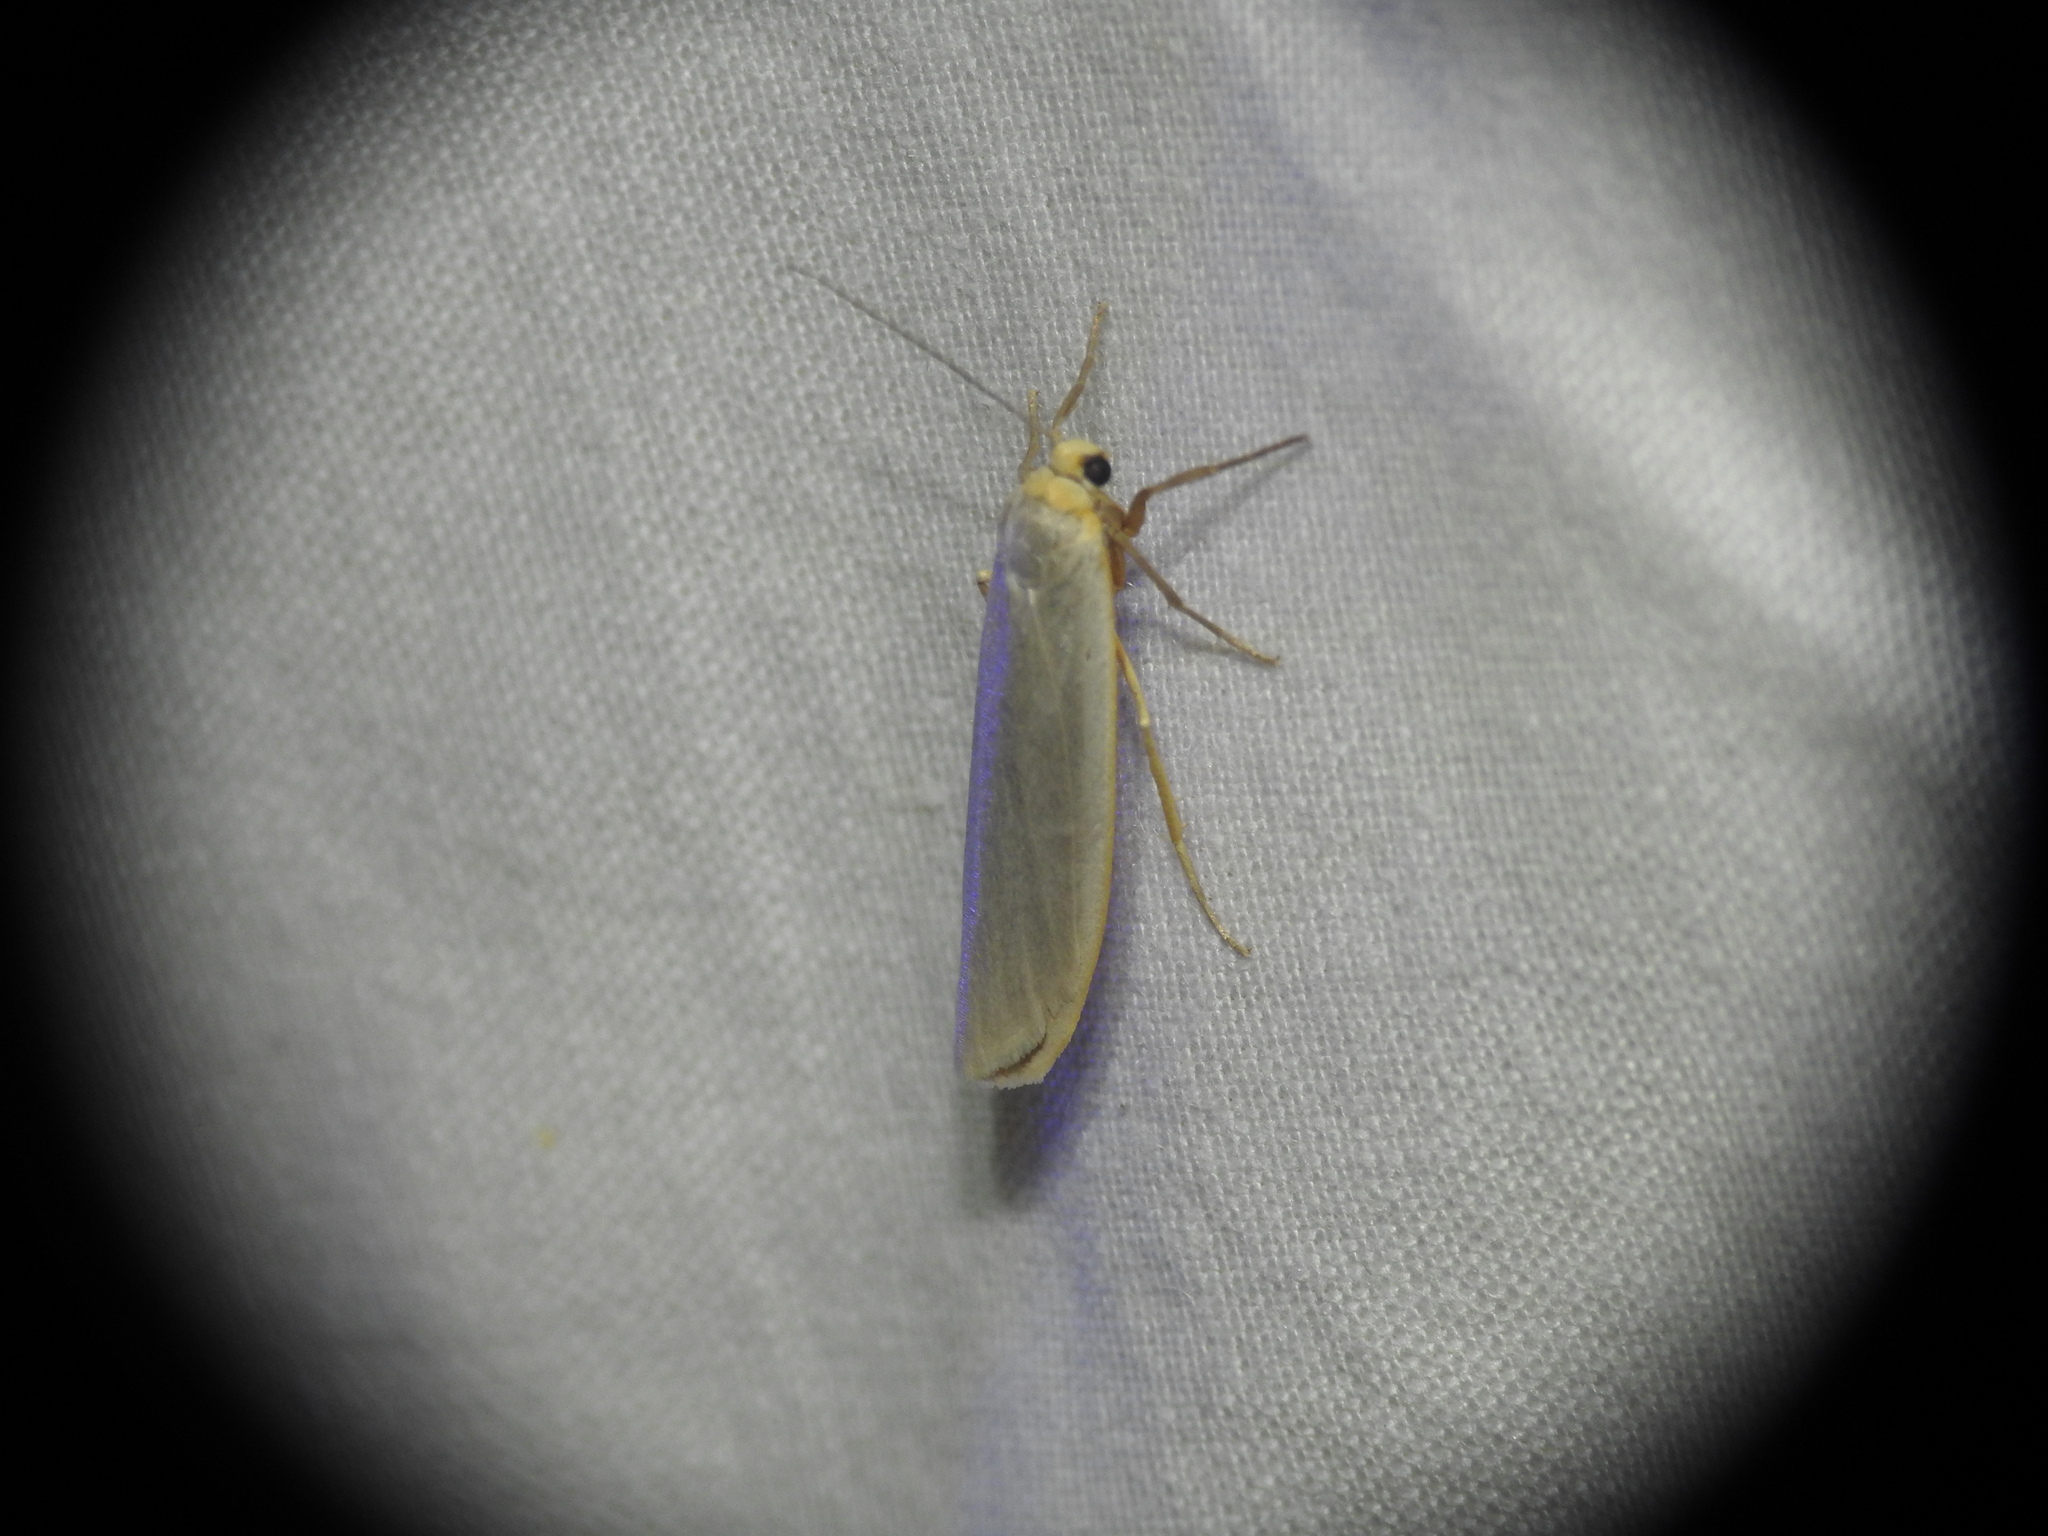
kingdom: Animalia
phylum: Arthropoda
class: Insecta
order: Lepidoptera
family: Erebidae
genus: Eilema
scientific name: Eilema caniola
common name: Hoary footman
